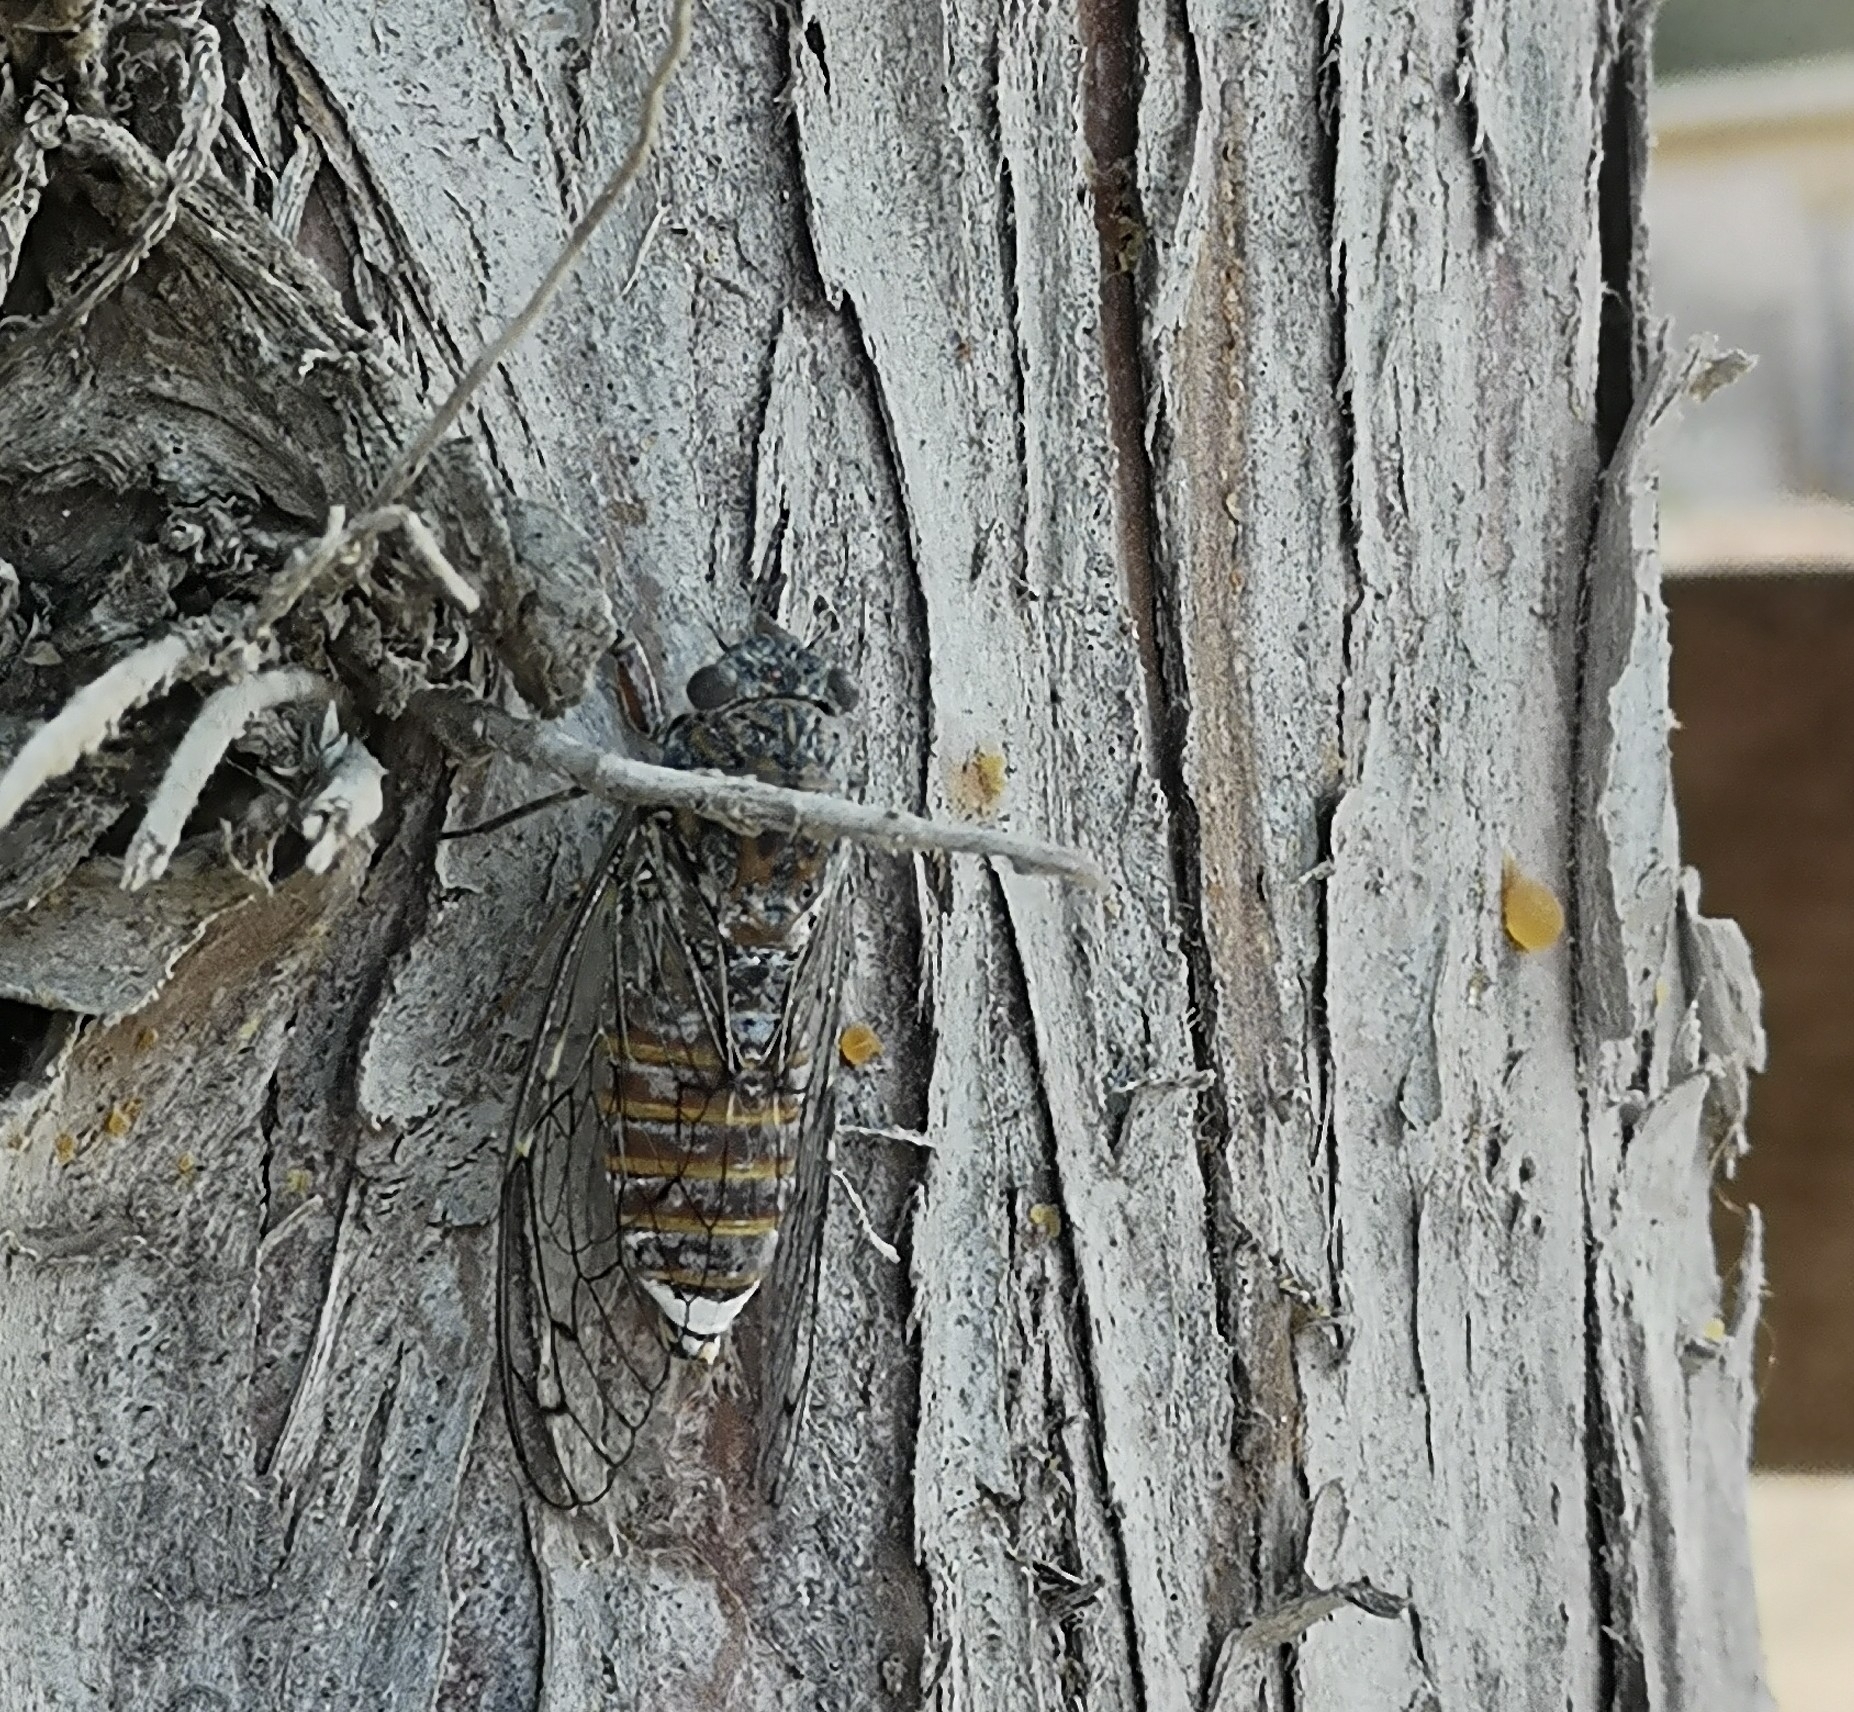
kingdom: Animalia
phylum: Arthropoda
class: Insecta
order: Hemiptera
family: Cicadidae
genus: Cicada
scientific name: Cicada orni
